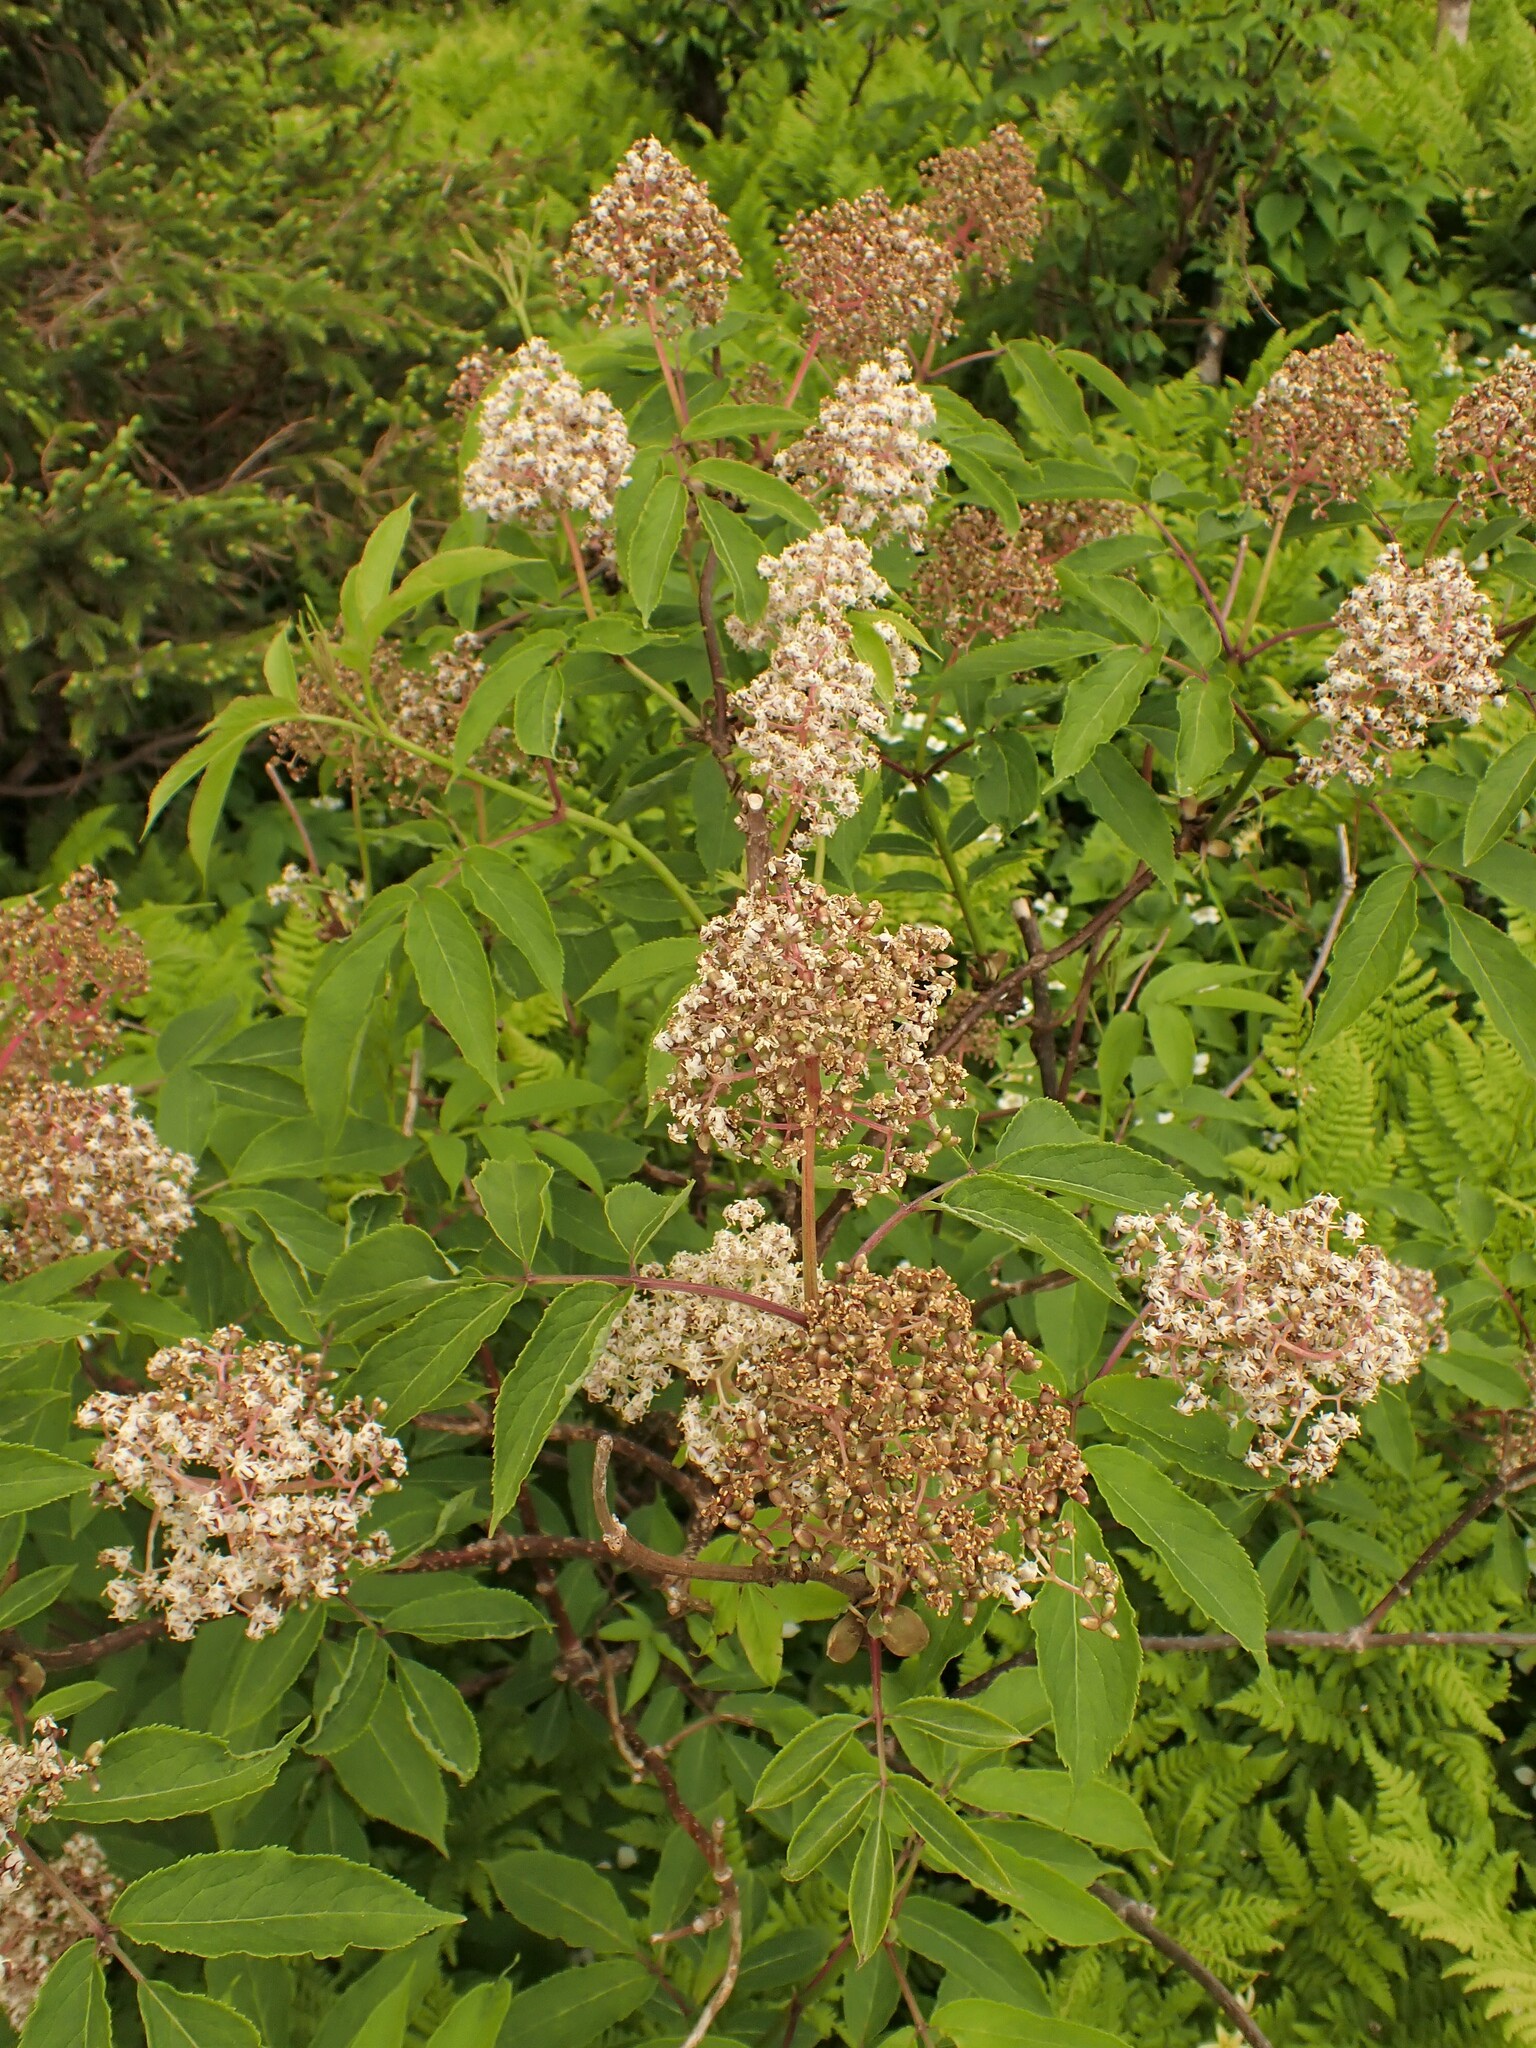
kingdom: Plantae
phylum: Tracheophyta
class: Magnoliopsida
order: Dipsacales
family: Viburnaceae
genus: Sambucus
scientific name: Sambucus racemosa
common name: Red-berried elder
